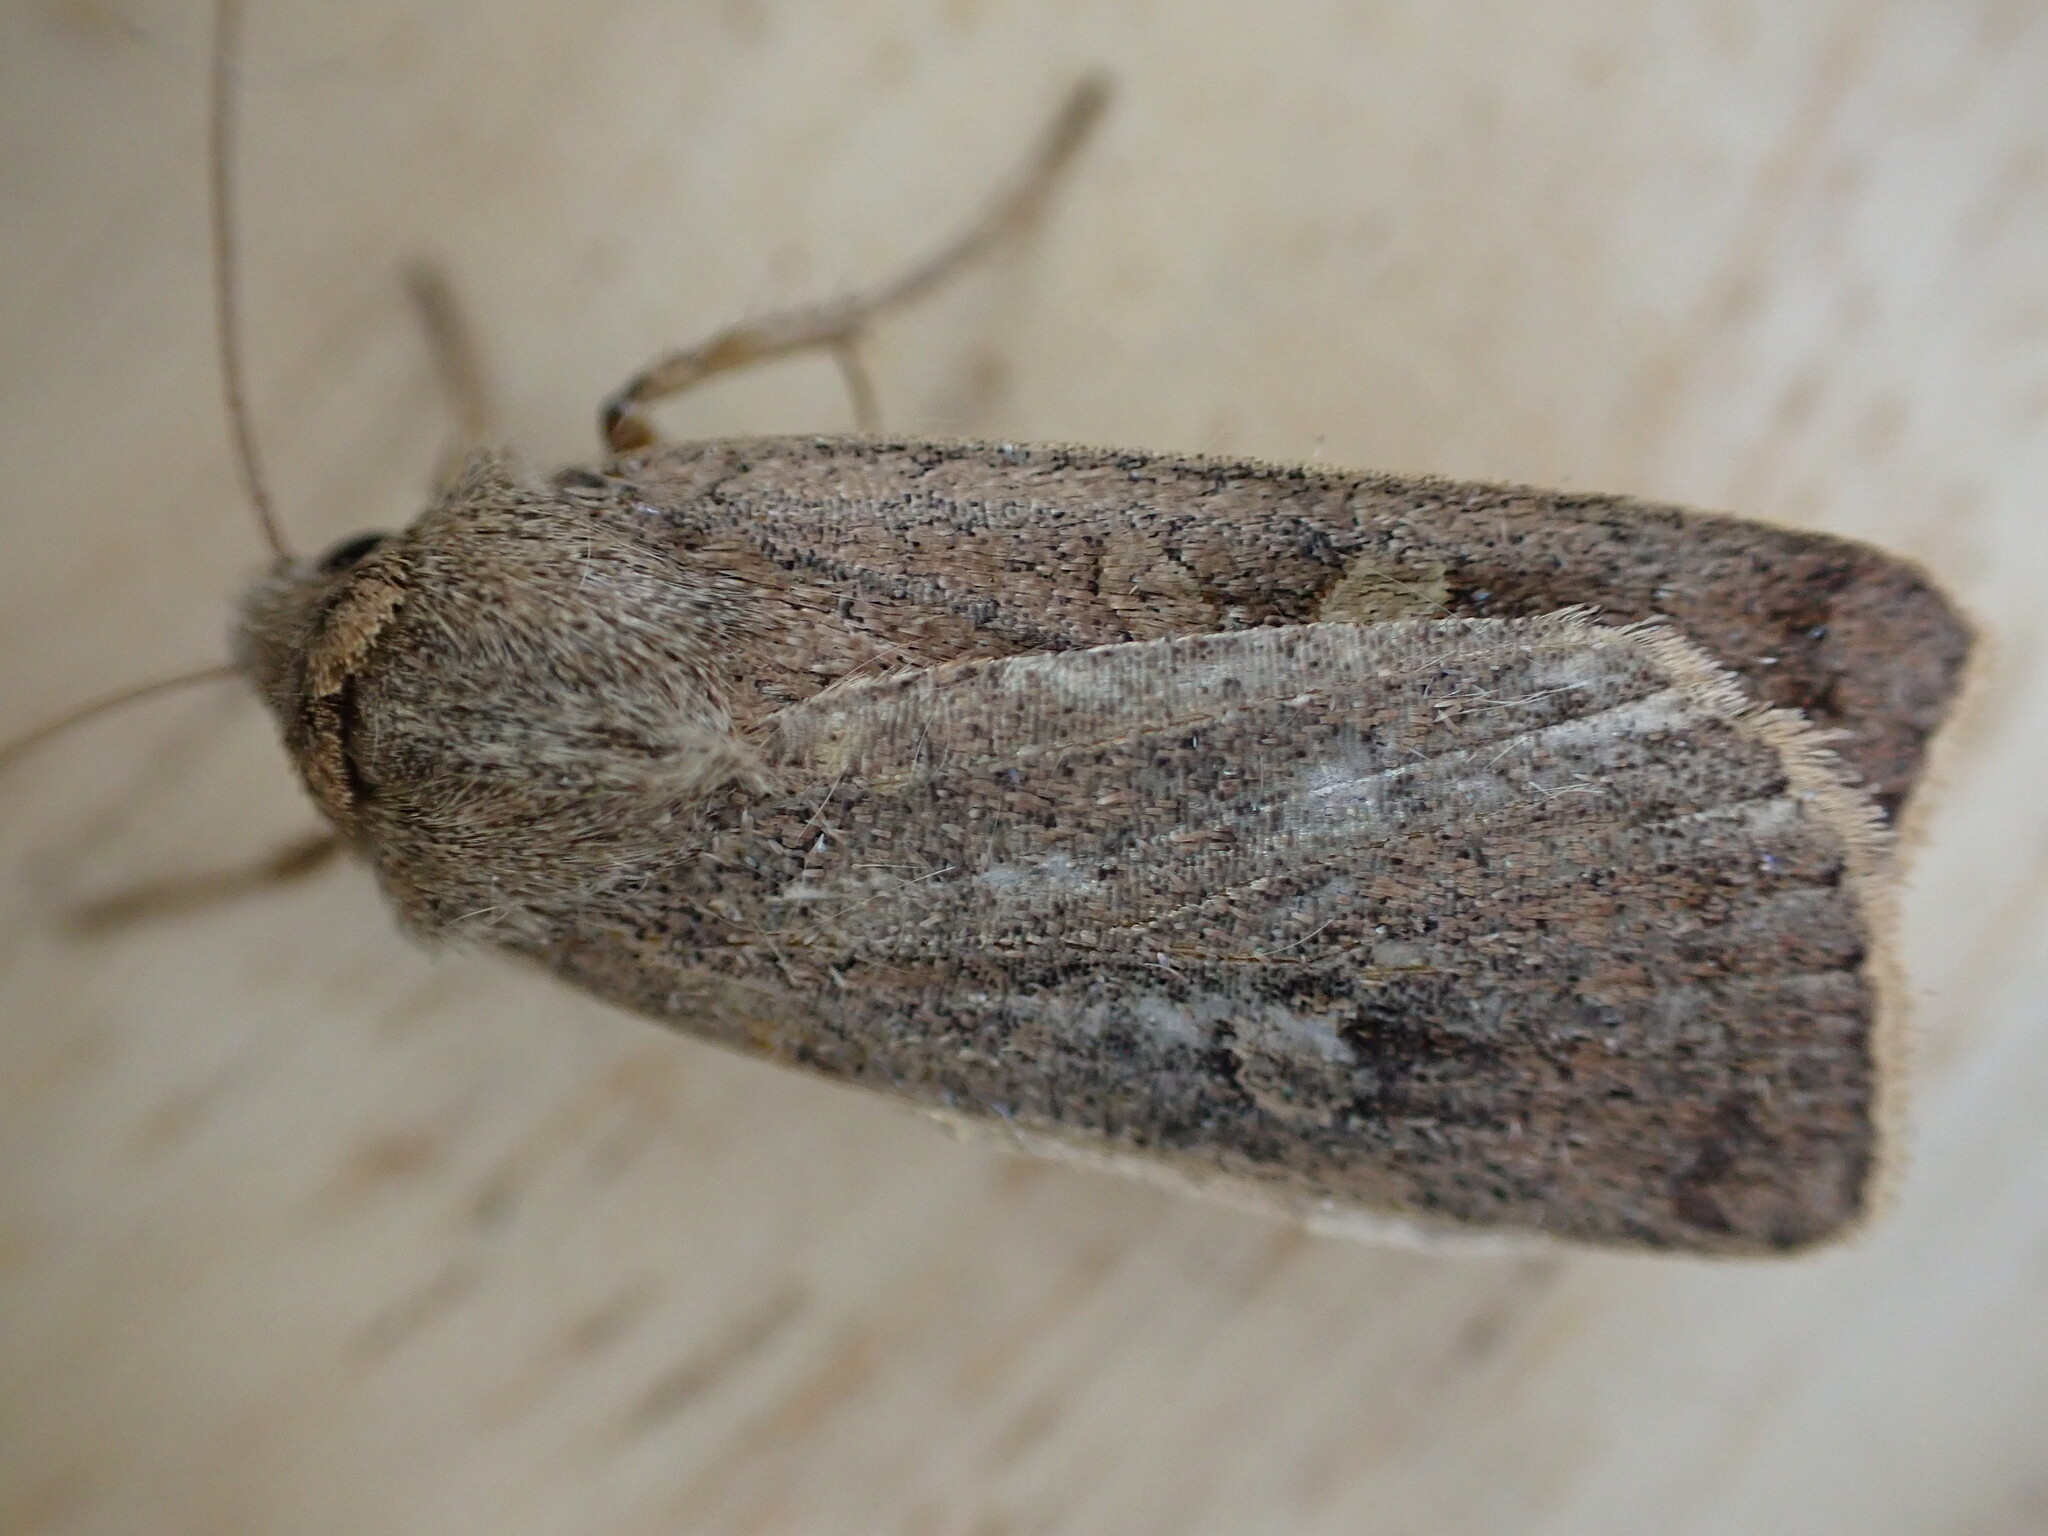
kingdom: Animalia
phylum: Arthropoda
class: Insecta
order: Lepidoptera
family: Noctuidae
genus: Xestia
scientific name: Xestia xanthographa
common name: Square-spot rustic
